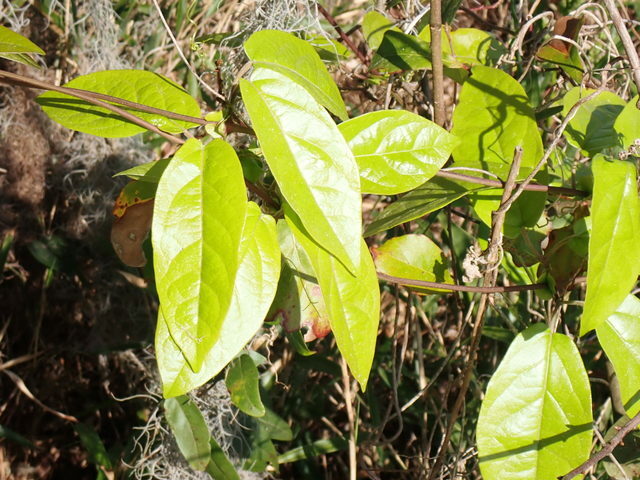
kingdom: Plantae
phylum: Tracheophyta
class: Magnoliopsida
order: Lamiales
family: Bignoniaceae
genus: Bignonia
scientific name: Bignonia capreolata
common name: Crossvine
